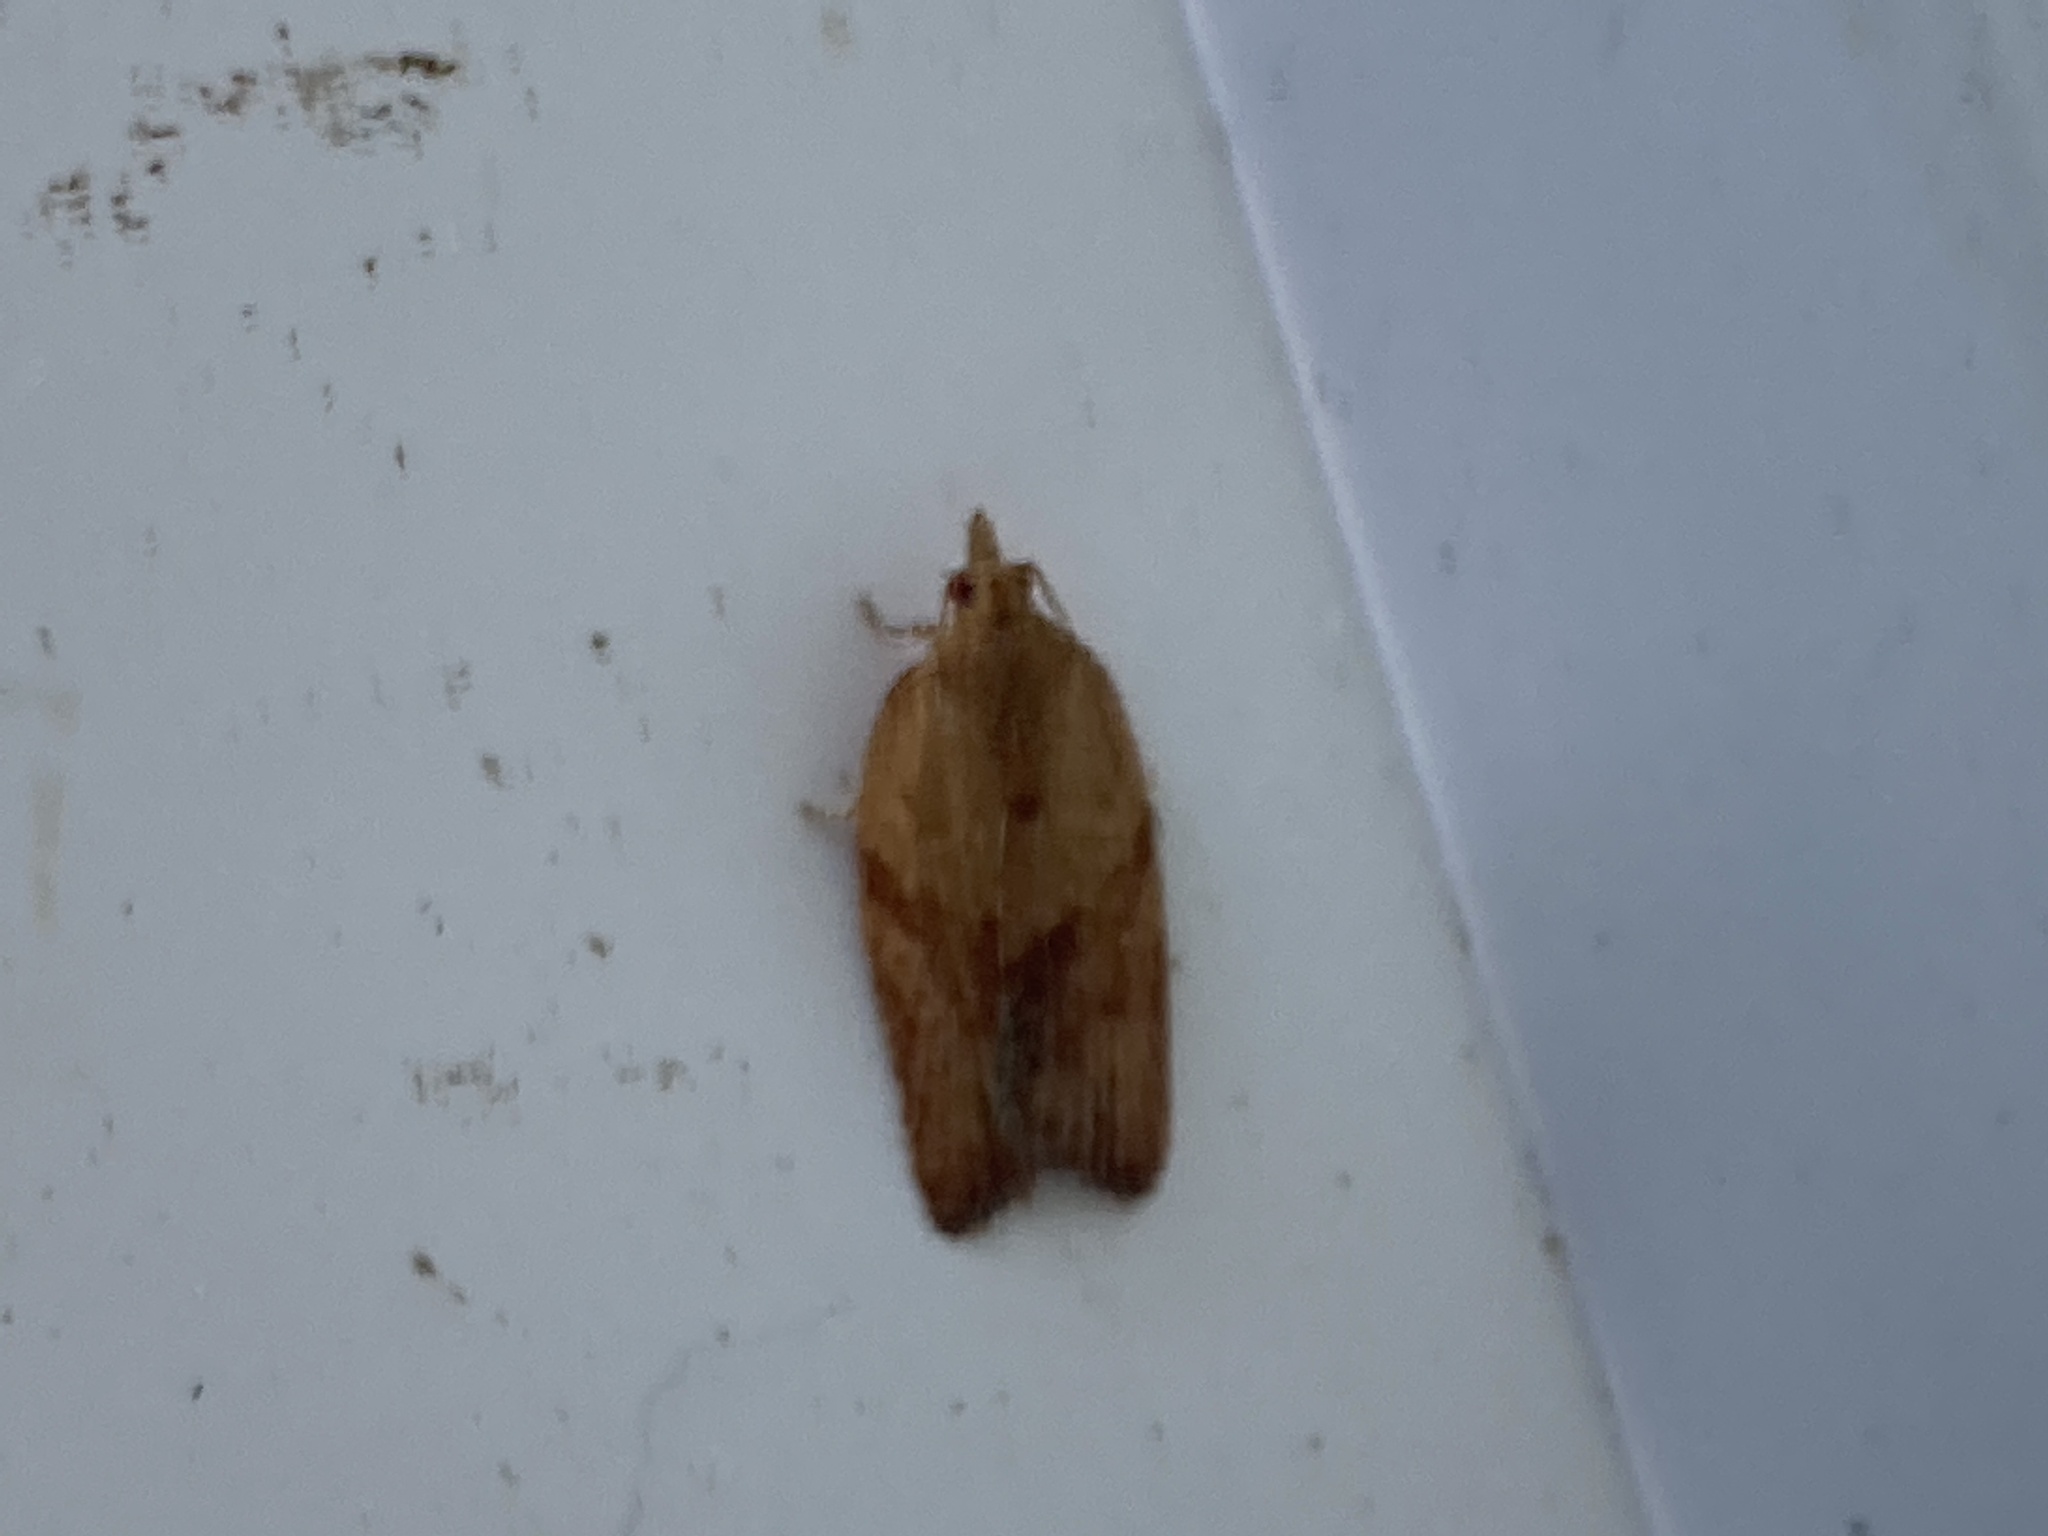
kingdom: Animalia
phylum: Arthropoda
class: Insecta
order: Lepidoptera
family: Tortricidae
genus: Epiphyas
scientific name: Epiphyas postvittana
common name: Light brown apple moth
